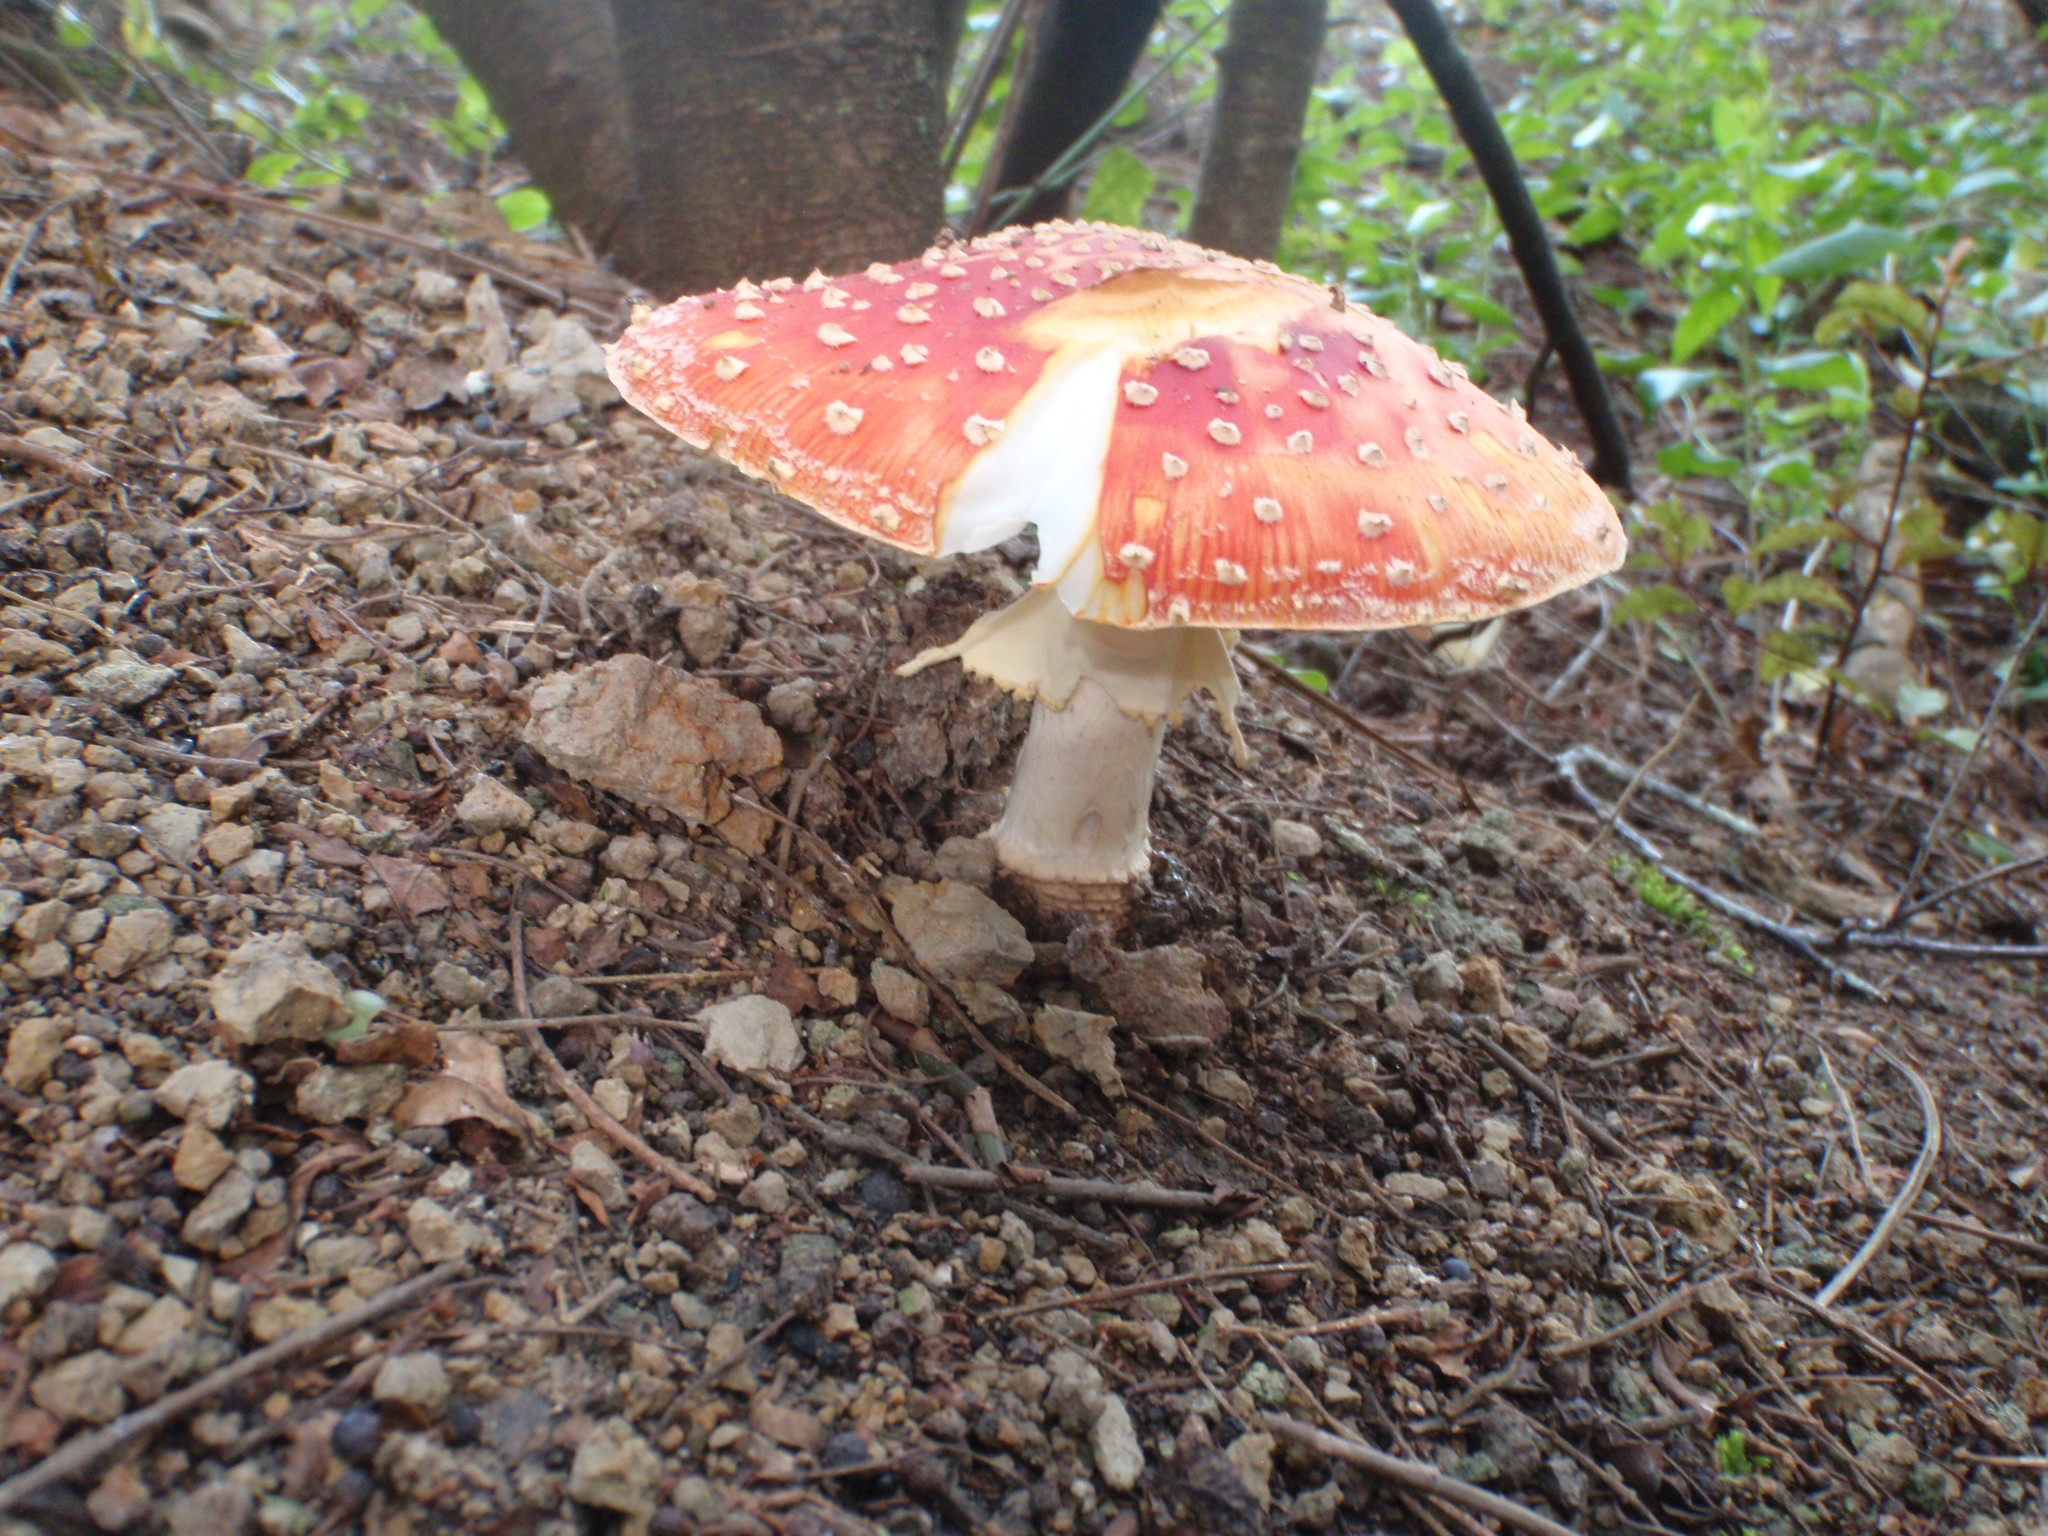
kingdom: Fungi
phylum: Basidiomycota
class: Agaricomycetes
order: Agaricales
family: Amanitaceae
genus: Amanita
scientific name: Amanita muscaria
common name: Fly agaric
